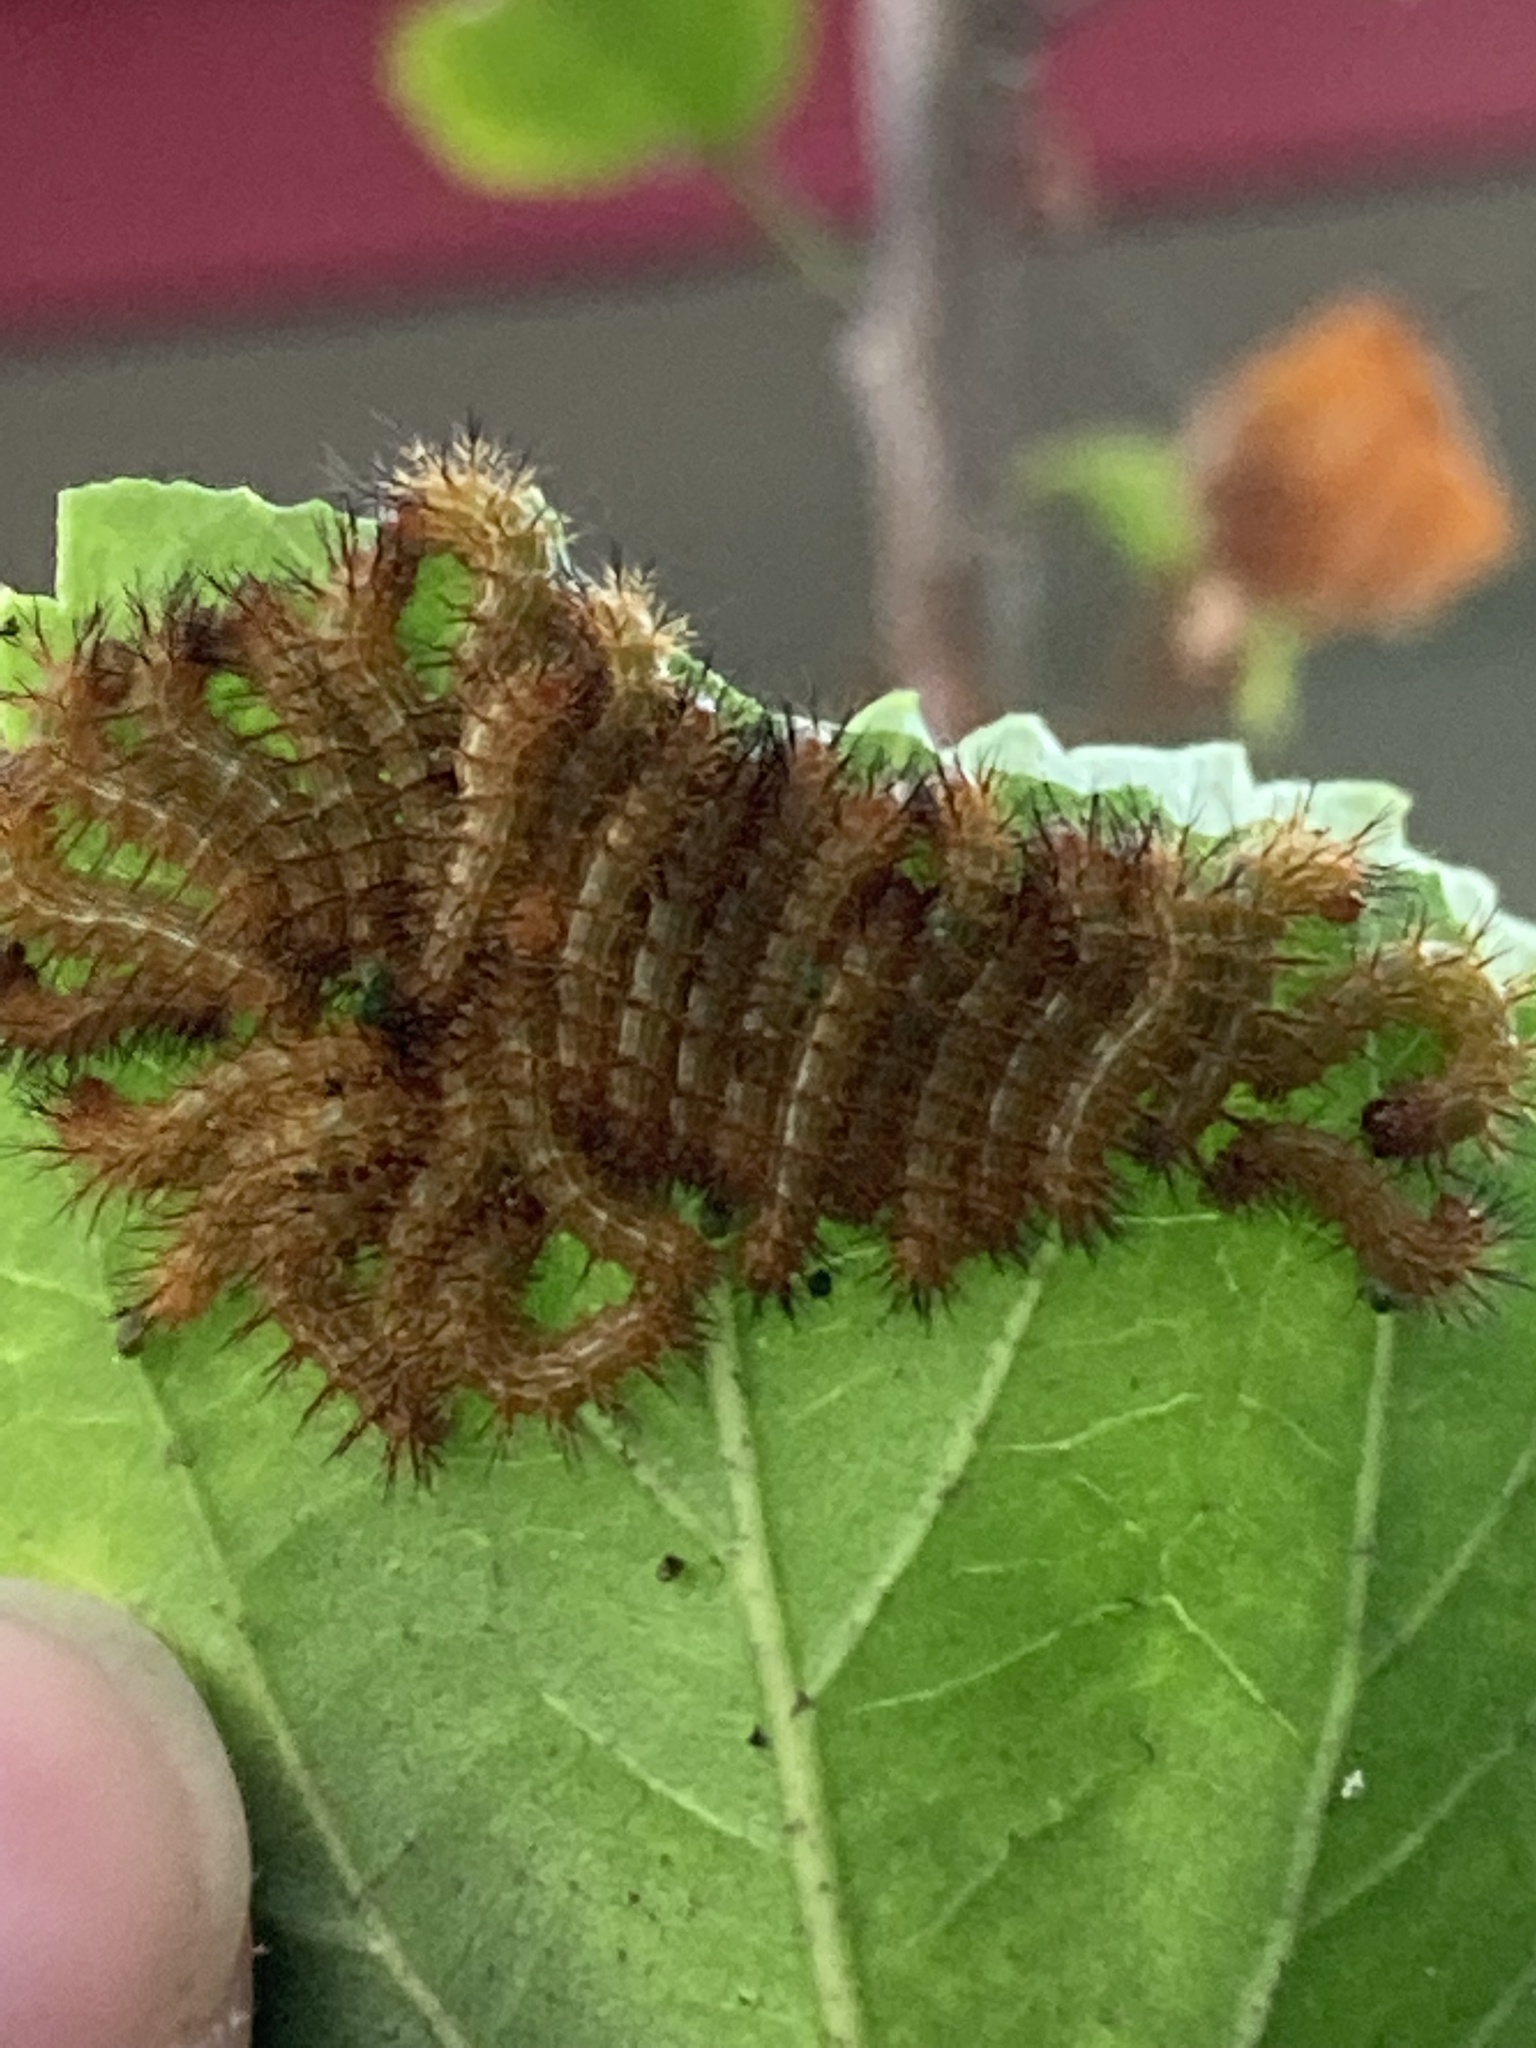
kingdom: Animalia
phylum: Arthropoda
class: Insecta
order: Lepidoptera
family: Saturniidae
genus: Automeris
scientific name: Automeris io
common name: Io moth
